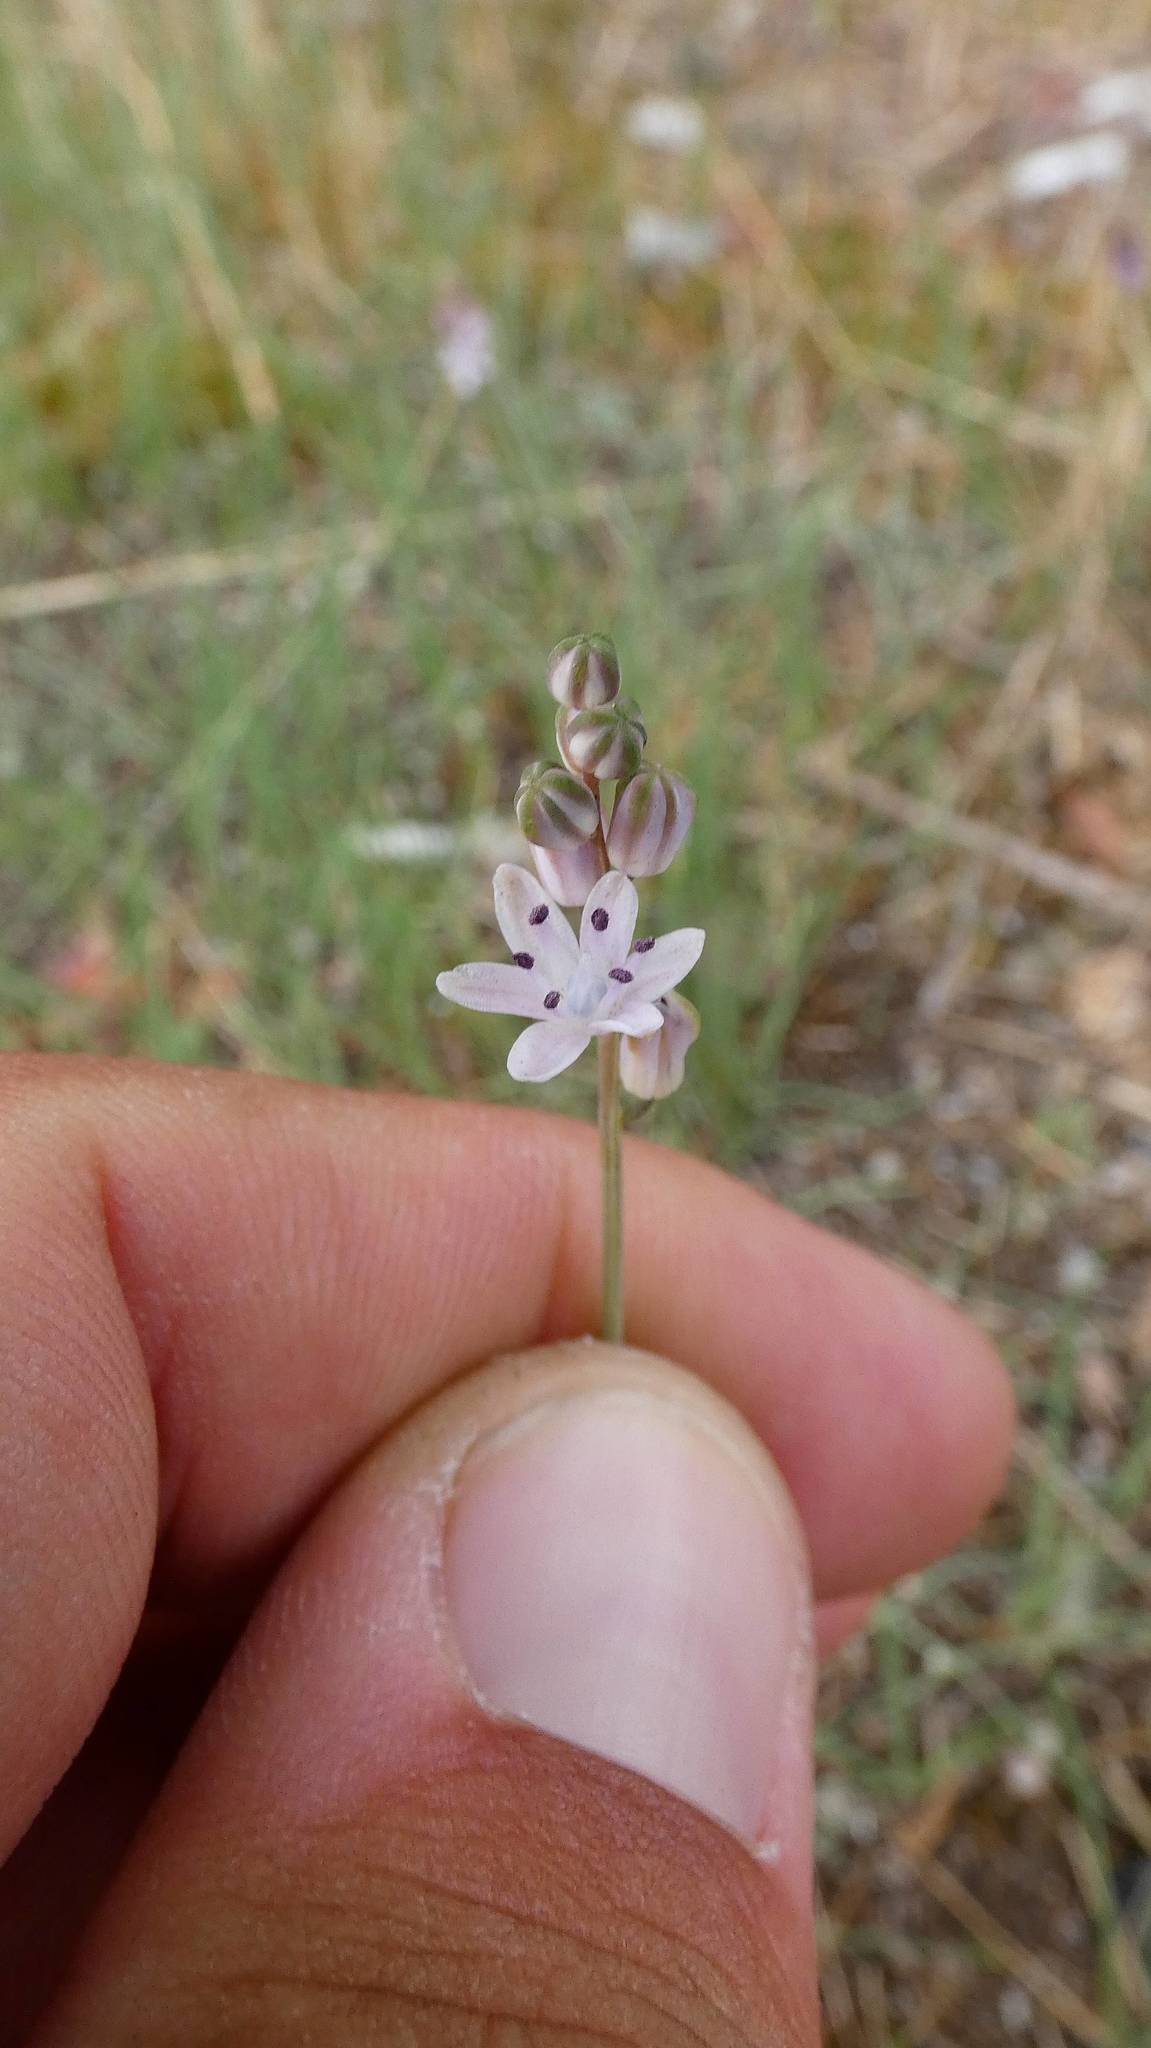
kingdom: Plantae
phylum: Tracheophyta
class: Liliopsida
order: Asparagales
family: Asparagaceae
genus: Prospero
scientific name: Prospero autumnale
